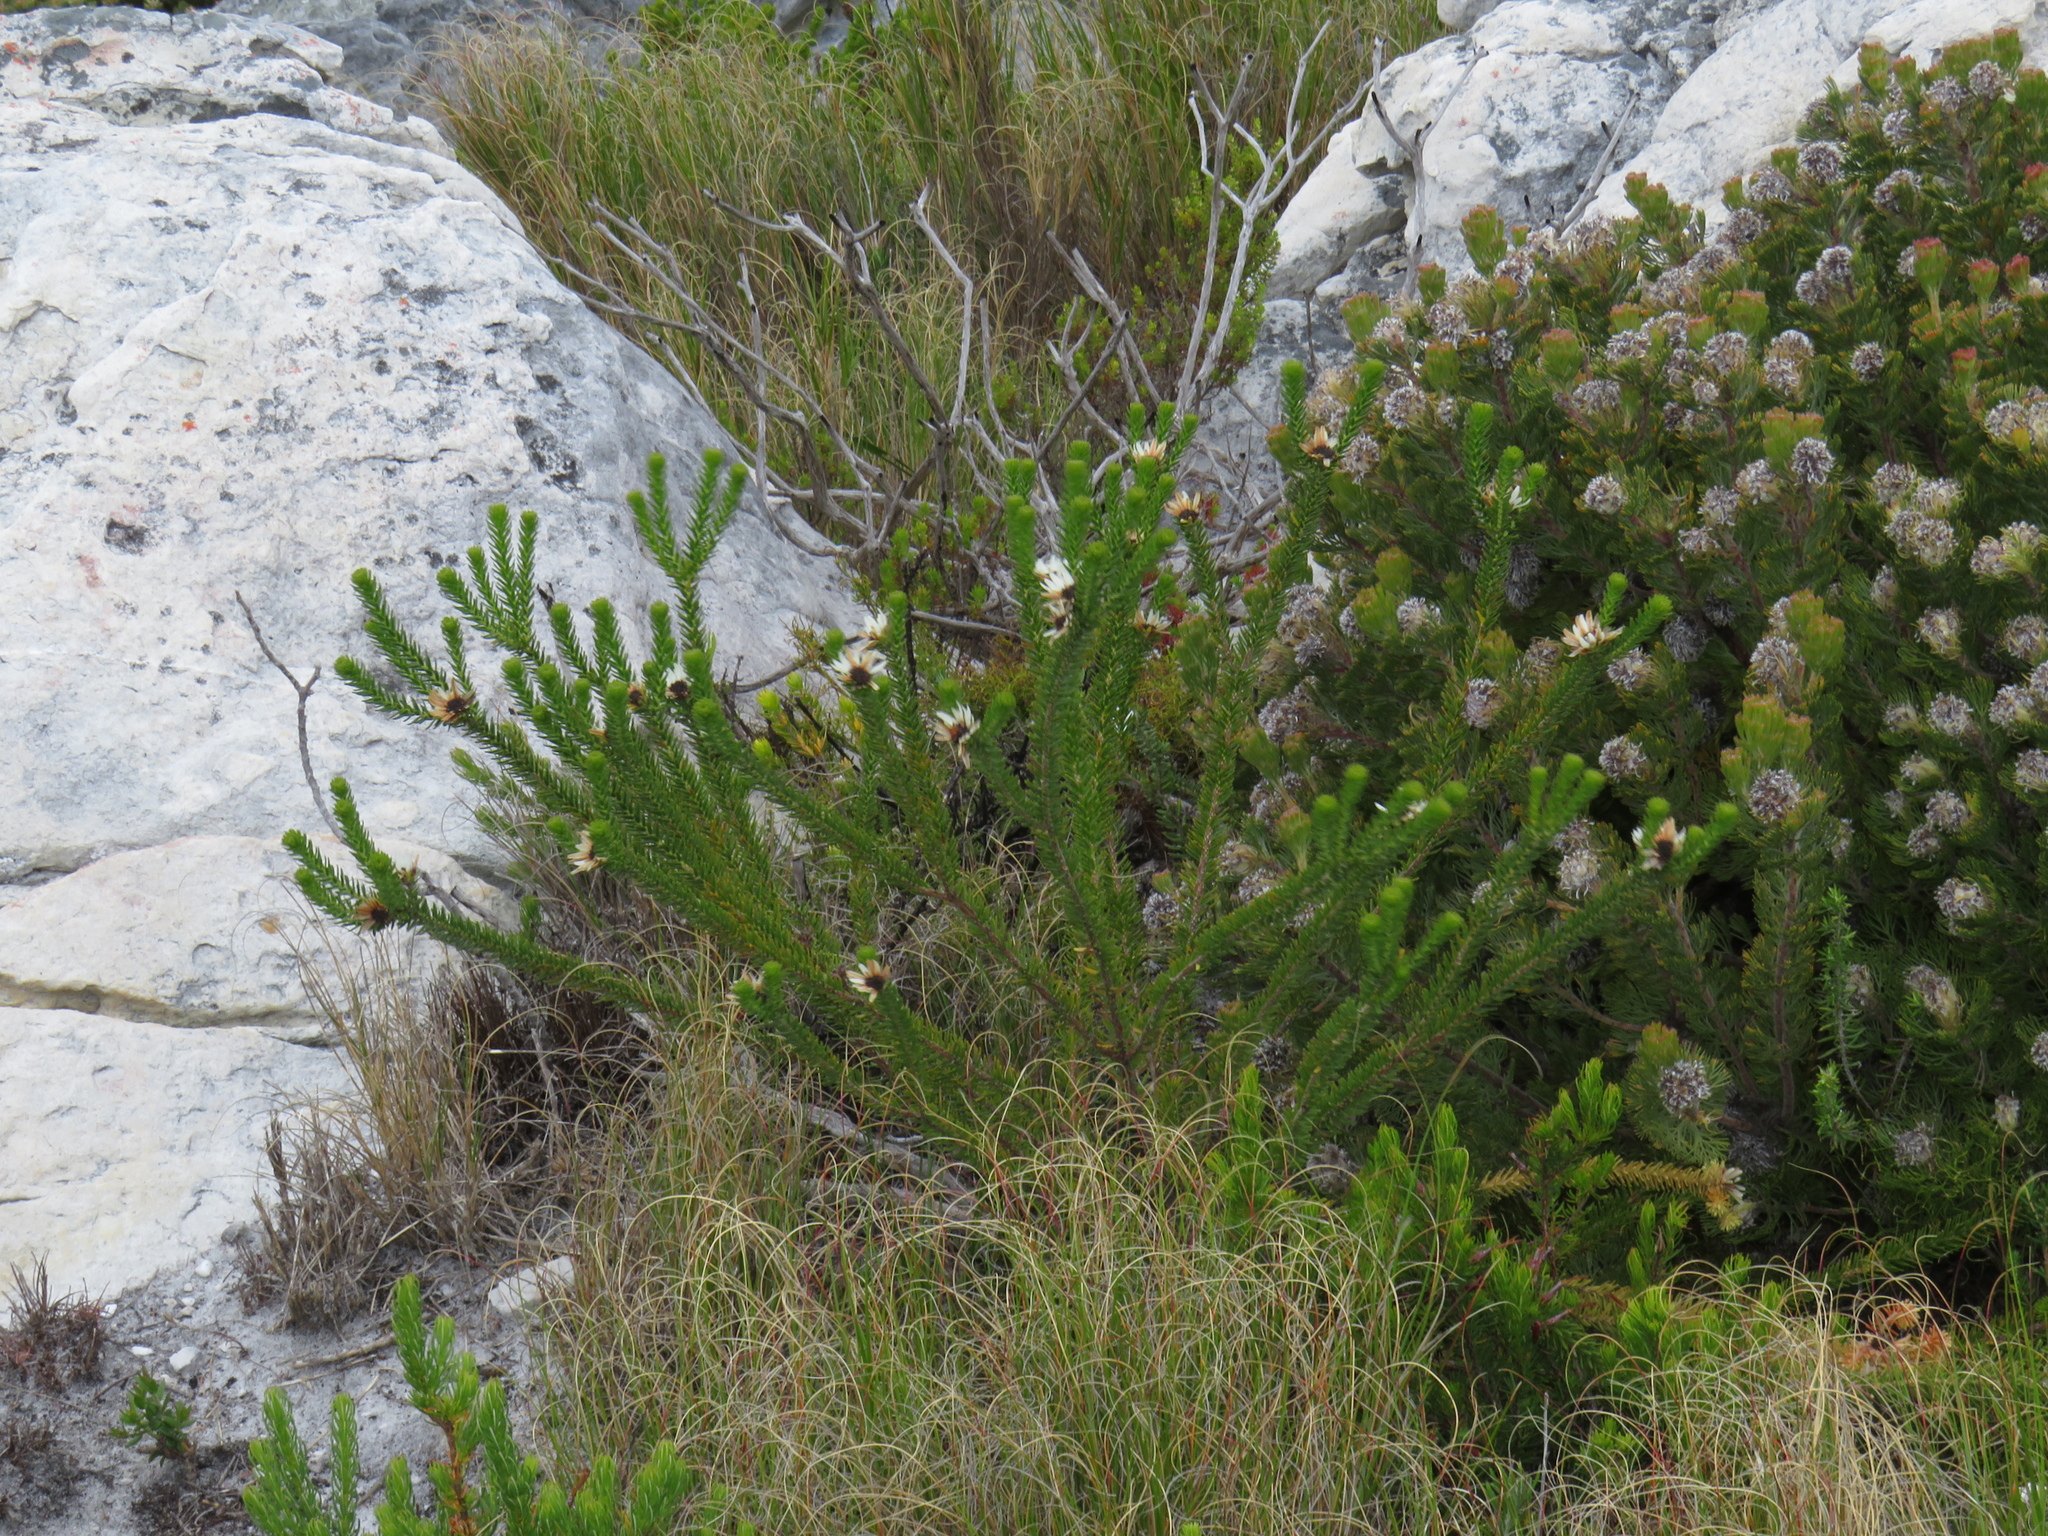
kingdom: Plantae
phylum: Tracheophyta
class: Magnoliopsida
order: Bruniales
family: Bruniaceae
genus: Staavia
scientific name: Staavia dodii
